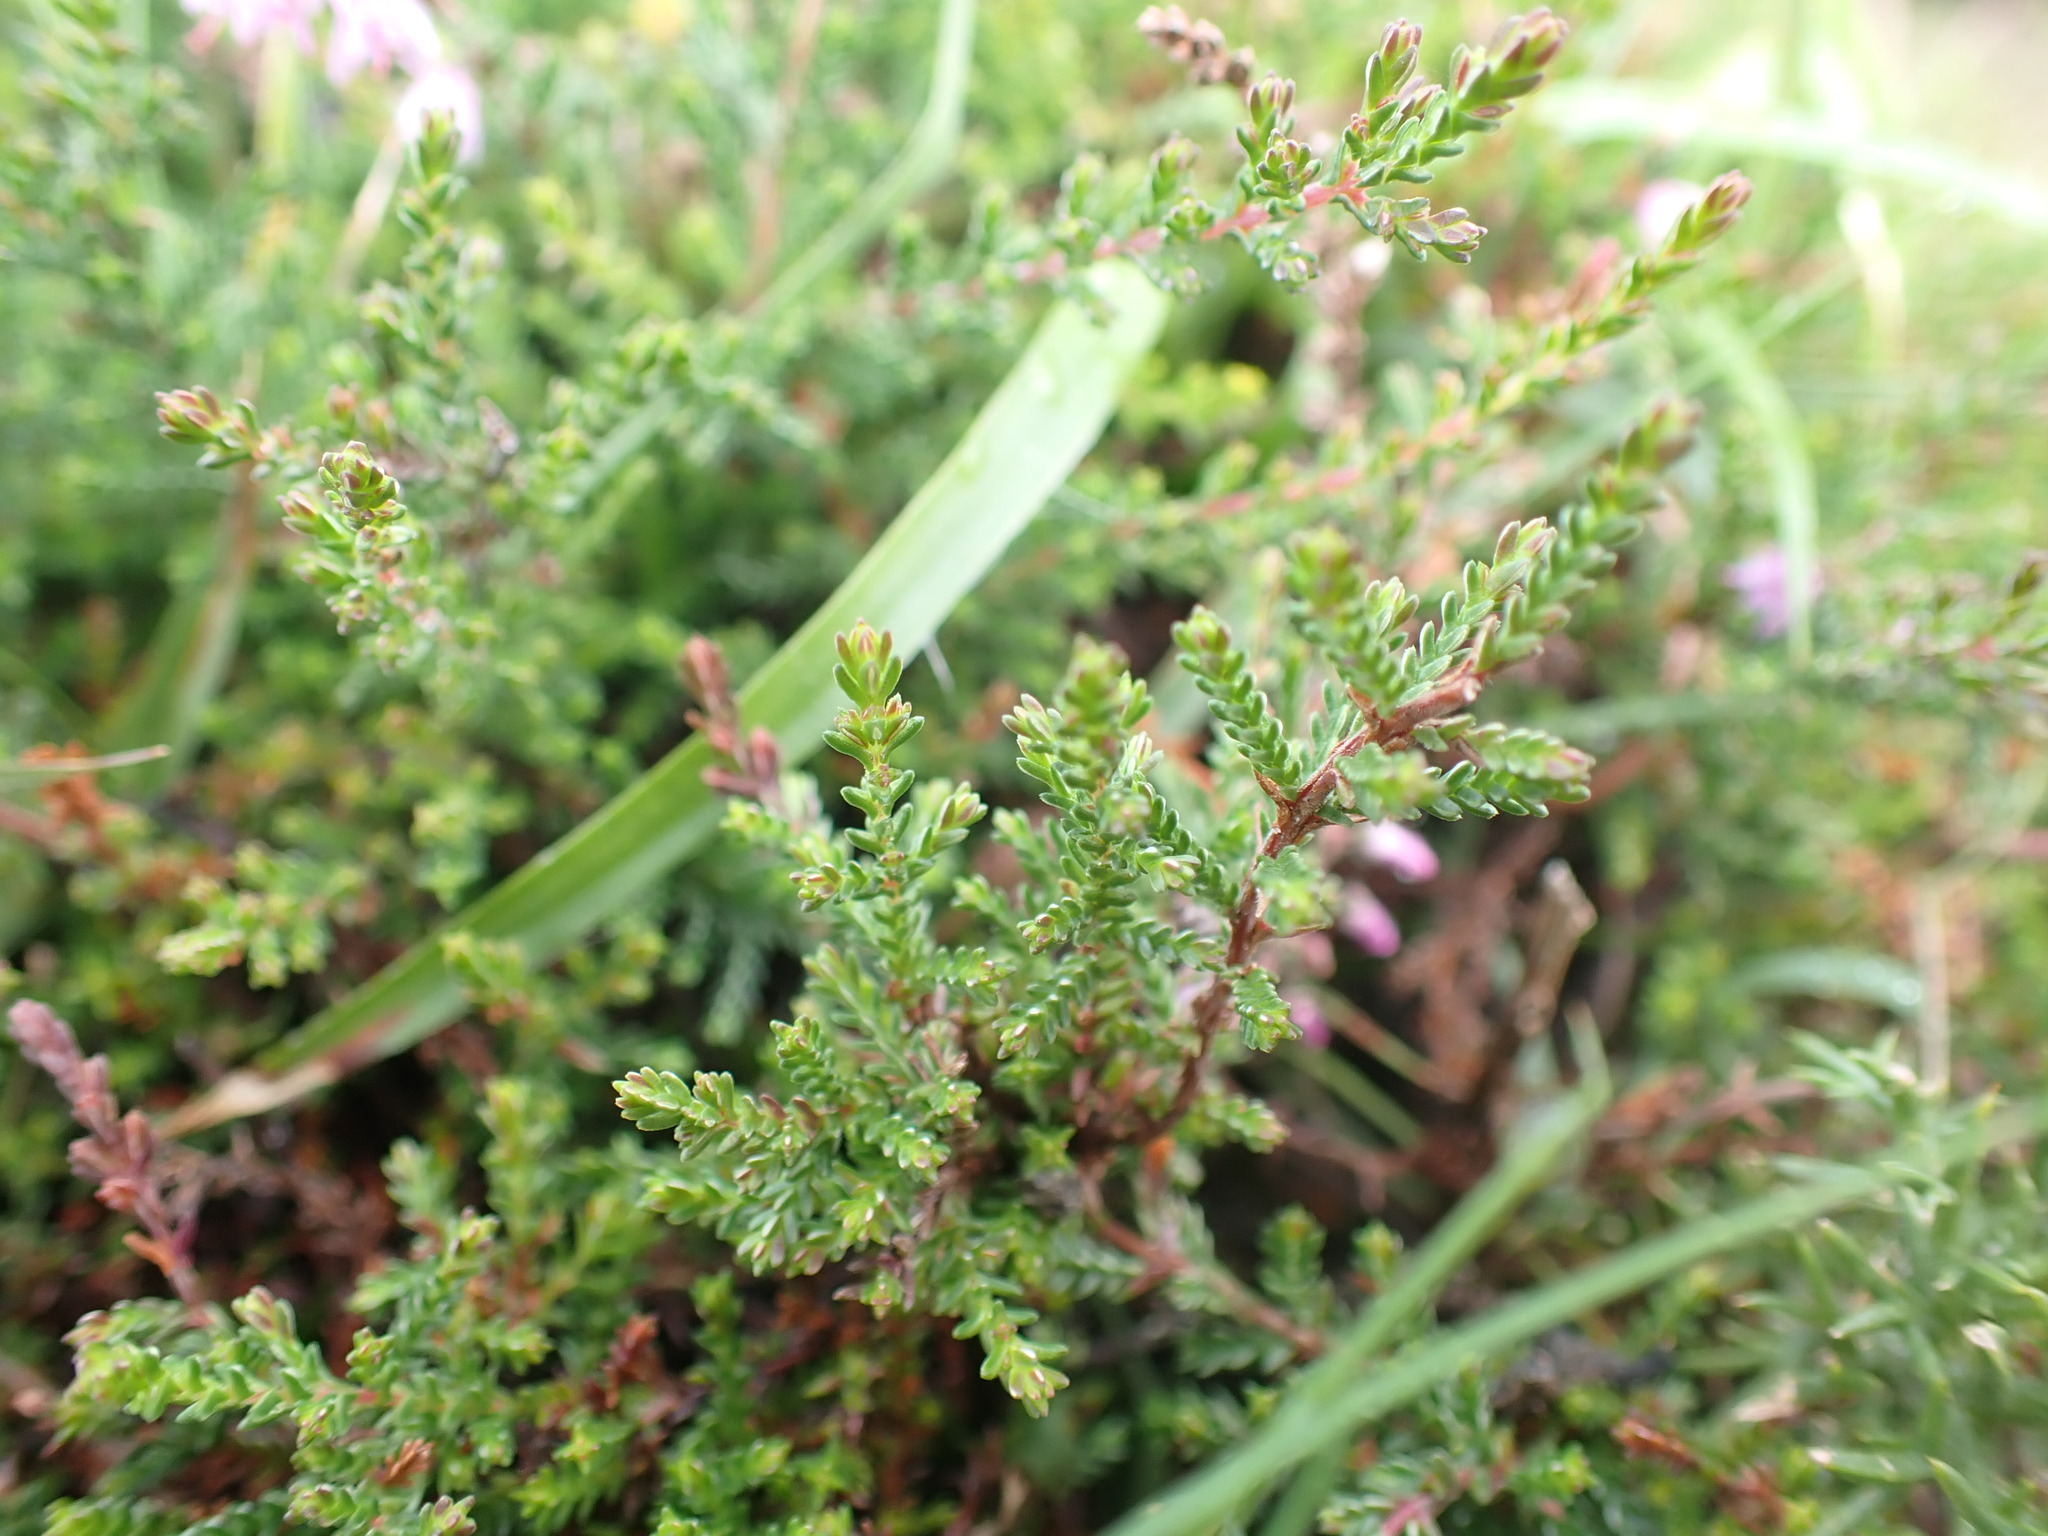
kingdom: Plantae
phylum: Tracheophyta
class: Magnoliopsida
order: Ericales
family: Ericaceae
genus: Calluna
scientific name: Calluna vulgaris
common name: Heather
